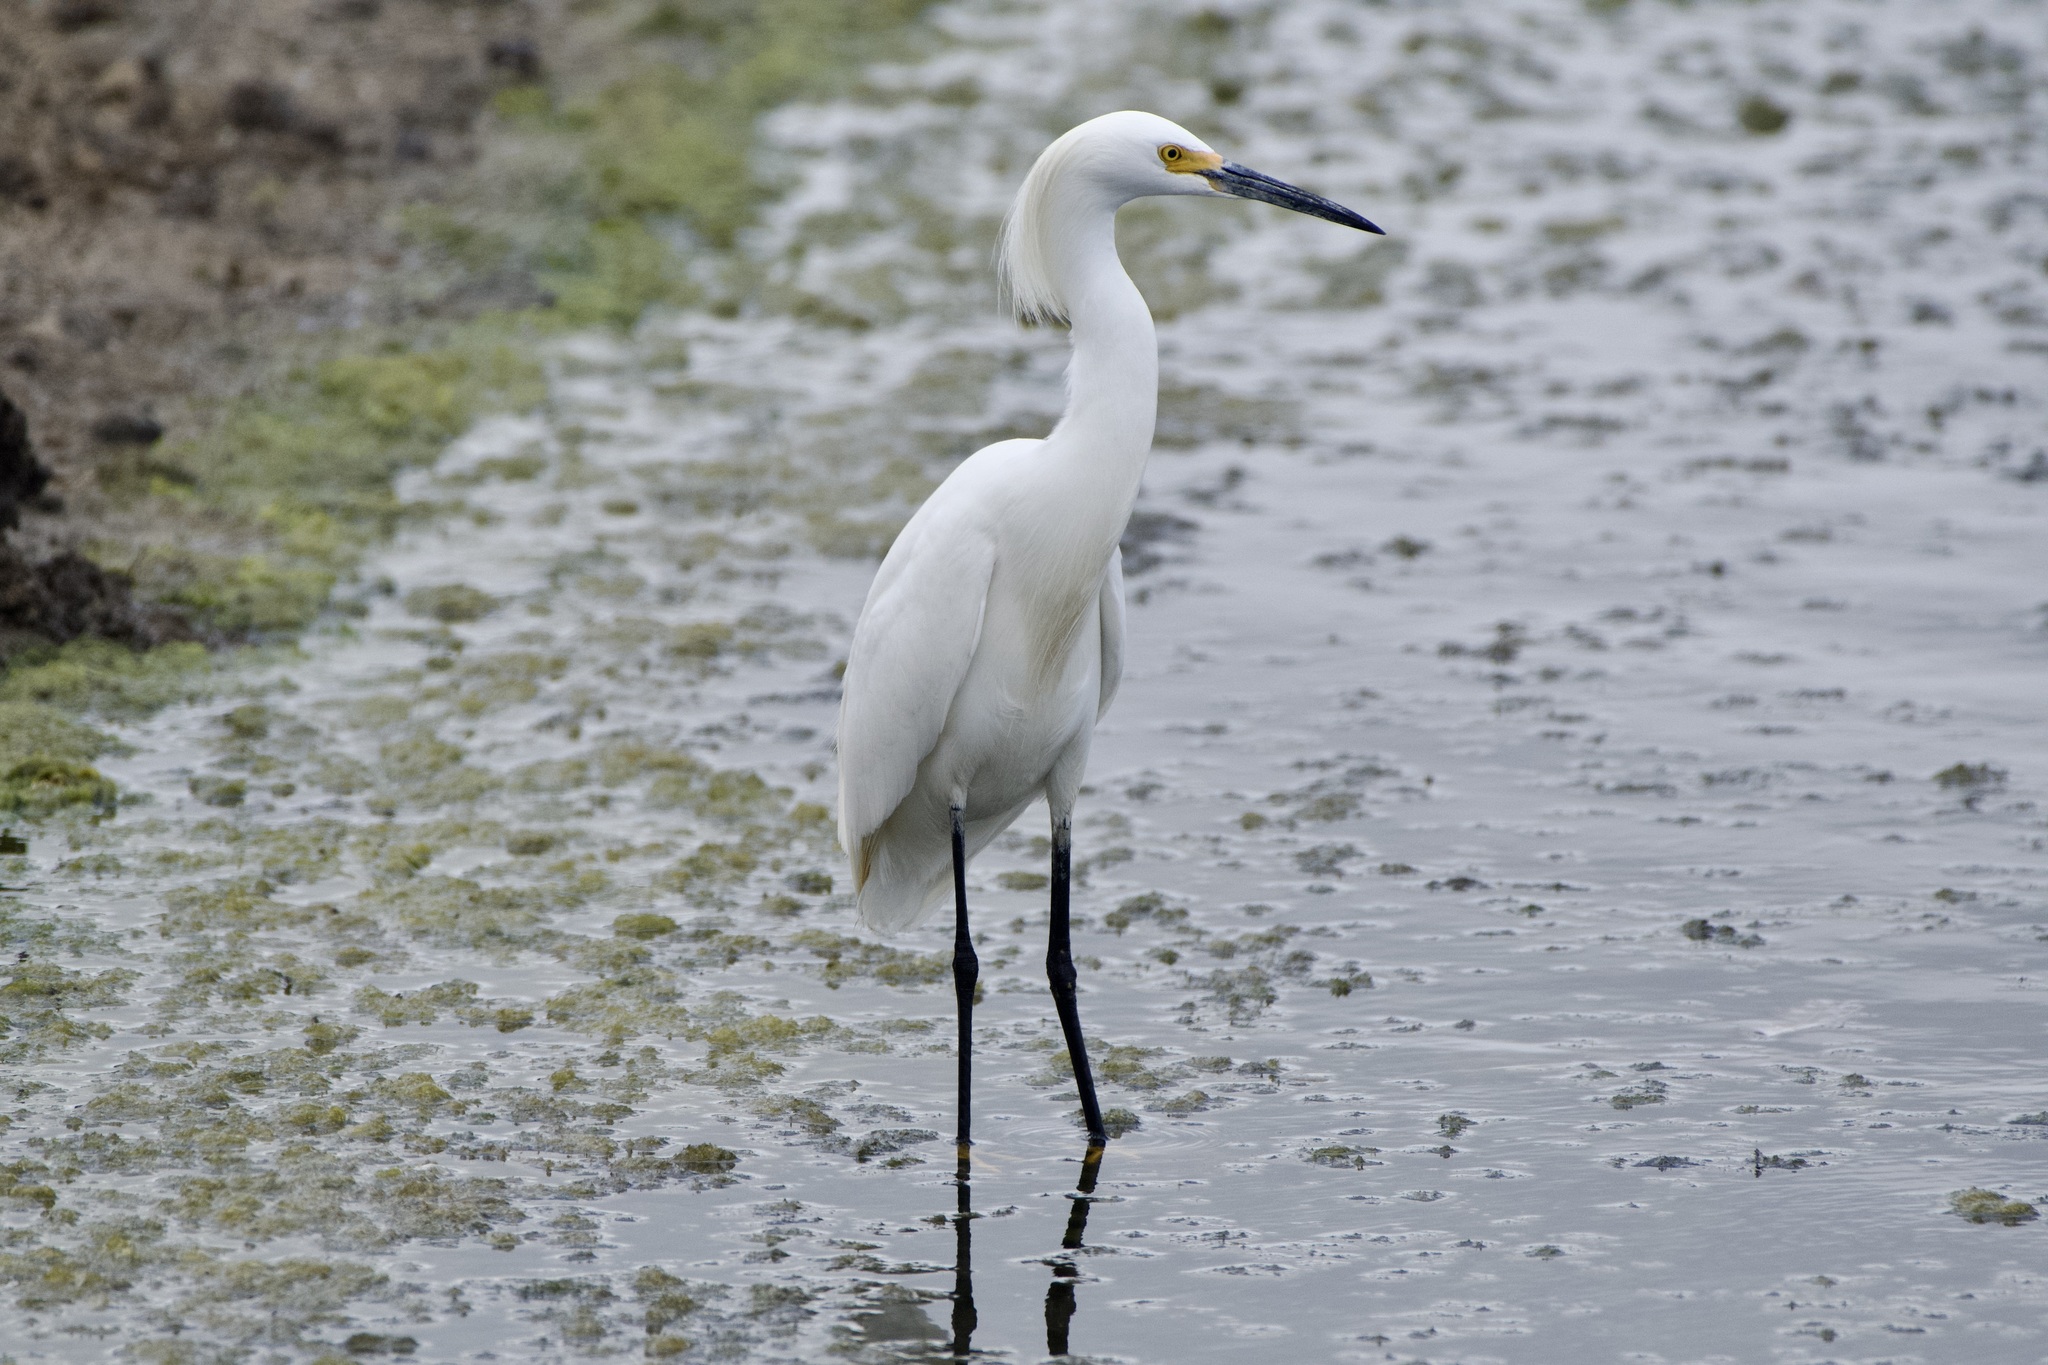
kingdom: Animalia
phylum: Chordata
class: Aves
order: Pelecaniformes
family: Ardeidae
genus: Egretta
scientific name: Egretta thula
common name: Snowy egret
